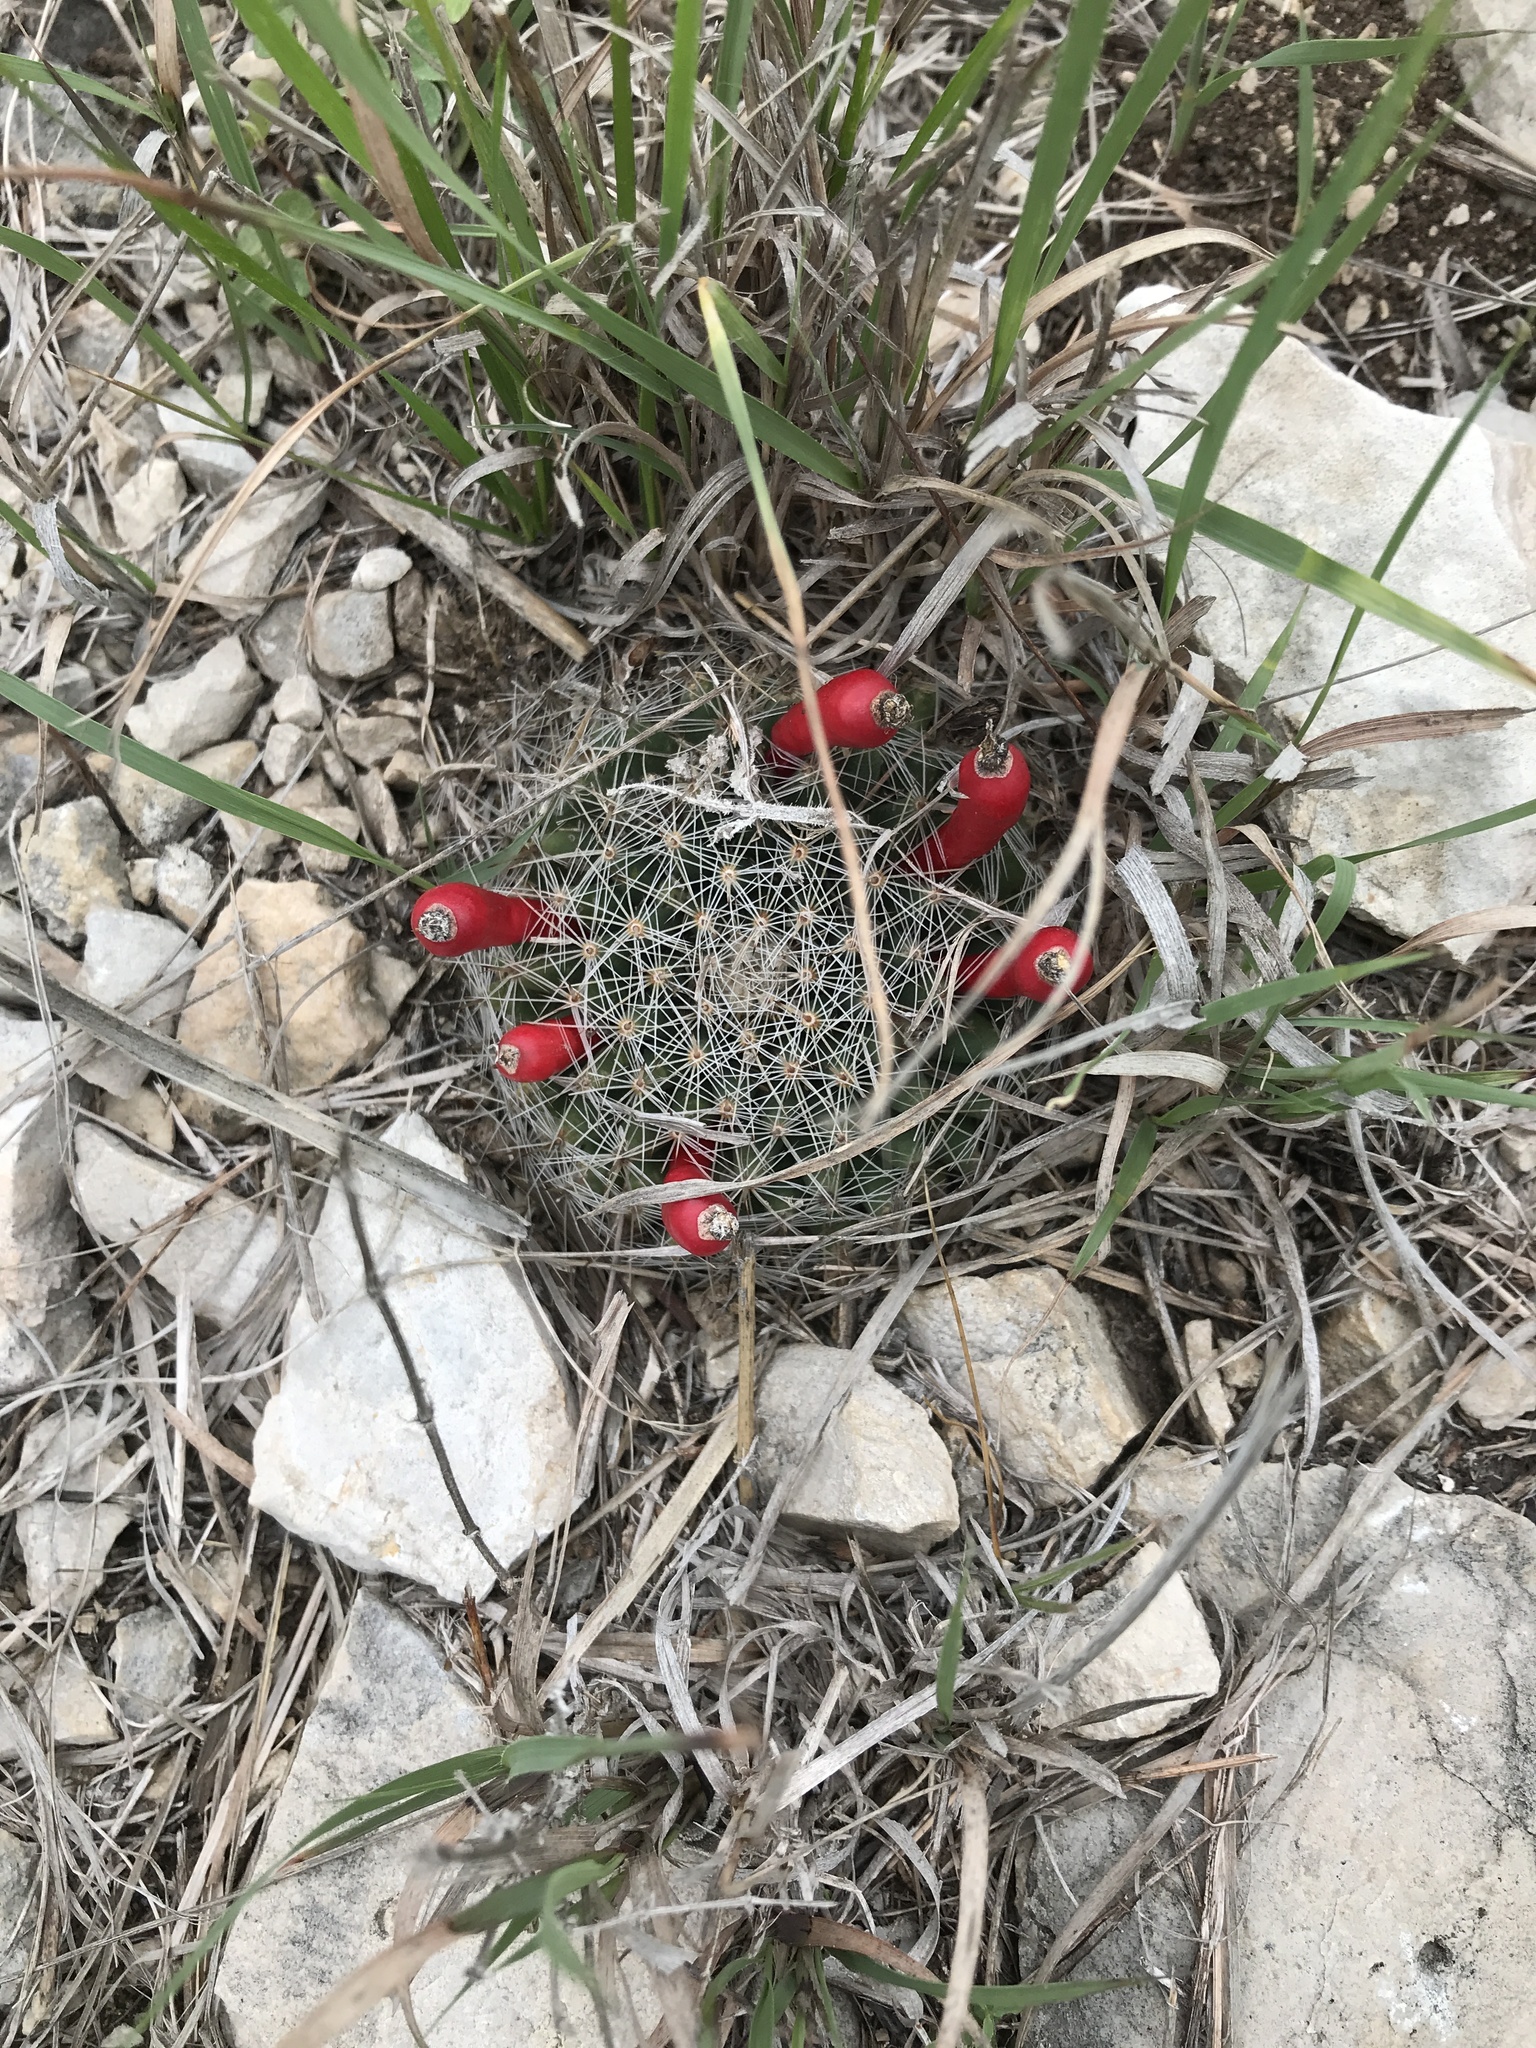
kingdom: Plantae
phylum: Tracheophyta
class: Magnoliopsida
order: Caryophyllales
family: Cactaceae
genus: Mammillaria
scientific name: Mammillaria heyderi
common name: Little nipple cactus
